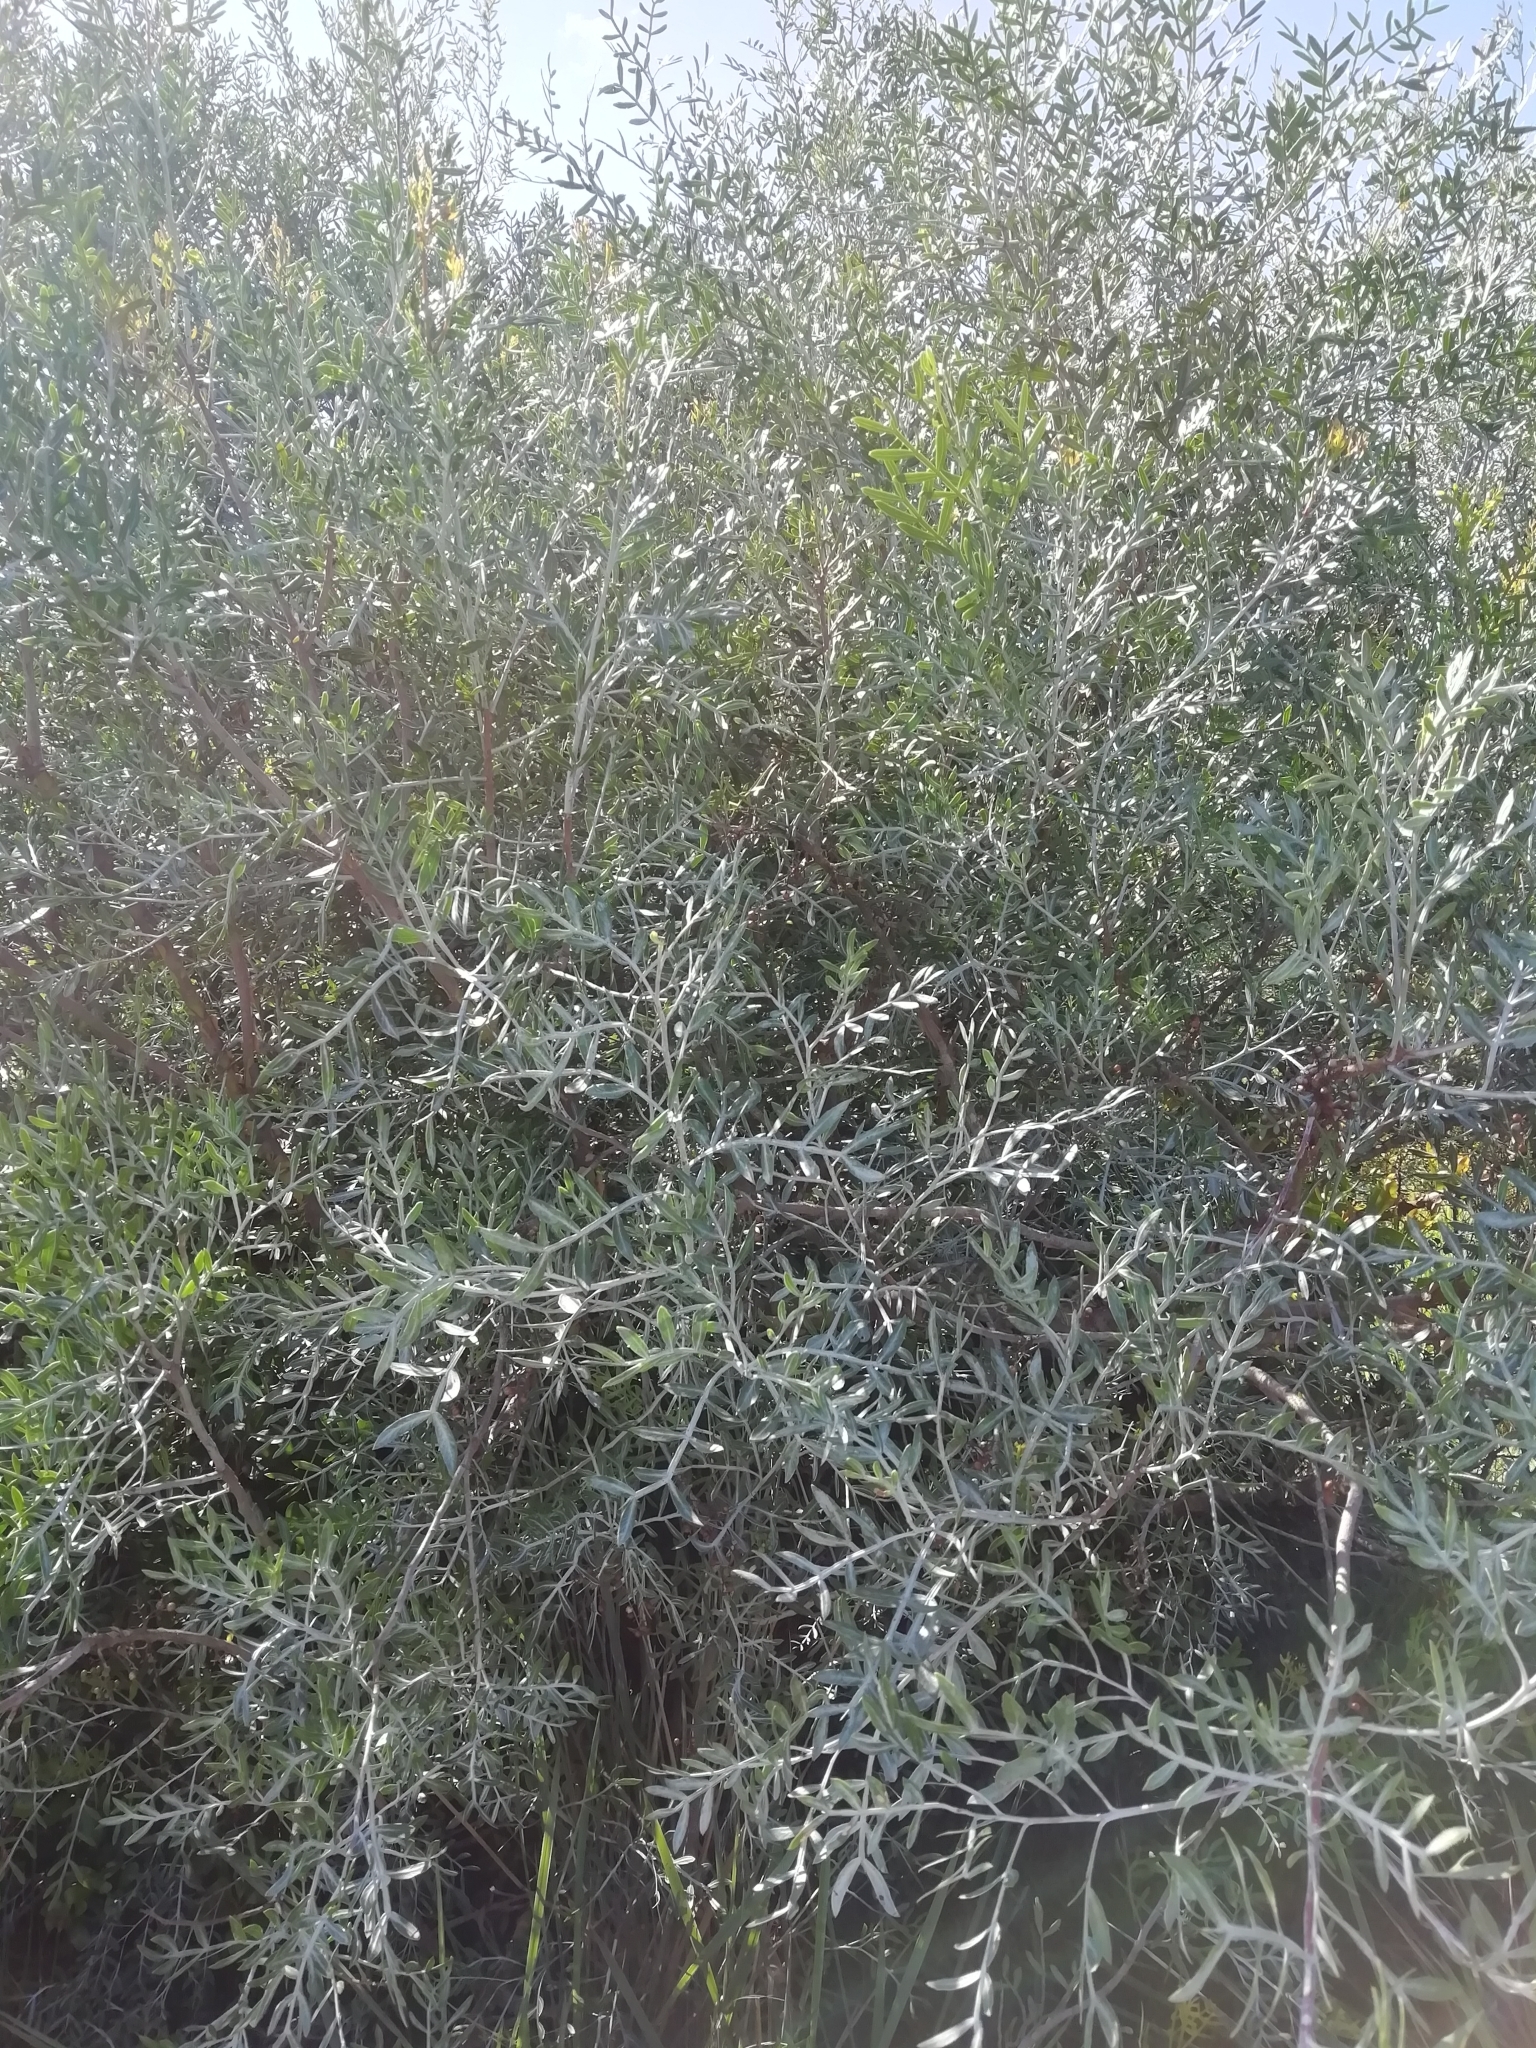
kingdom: Plantae
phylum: Tracheophyta
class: Magnoliopsida
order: Sapindales
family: Anacardiaceae
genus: Schinus
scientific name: Schinus lentiscifolia
